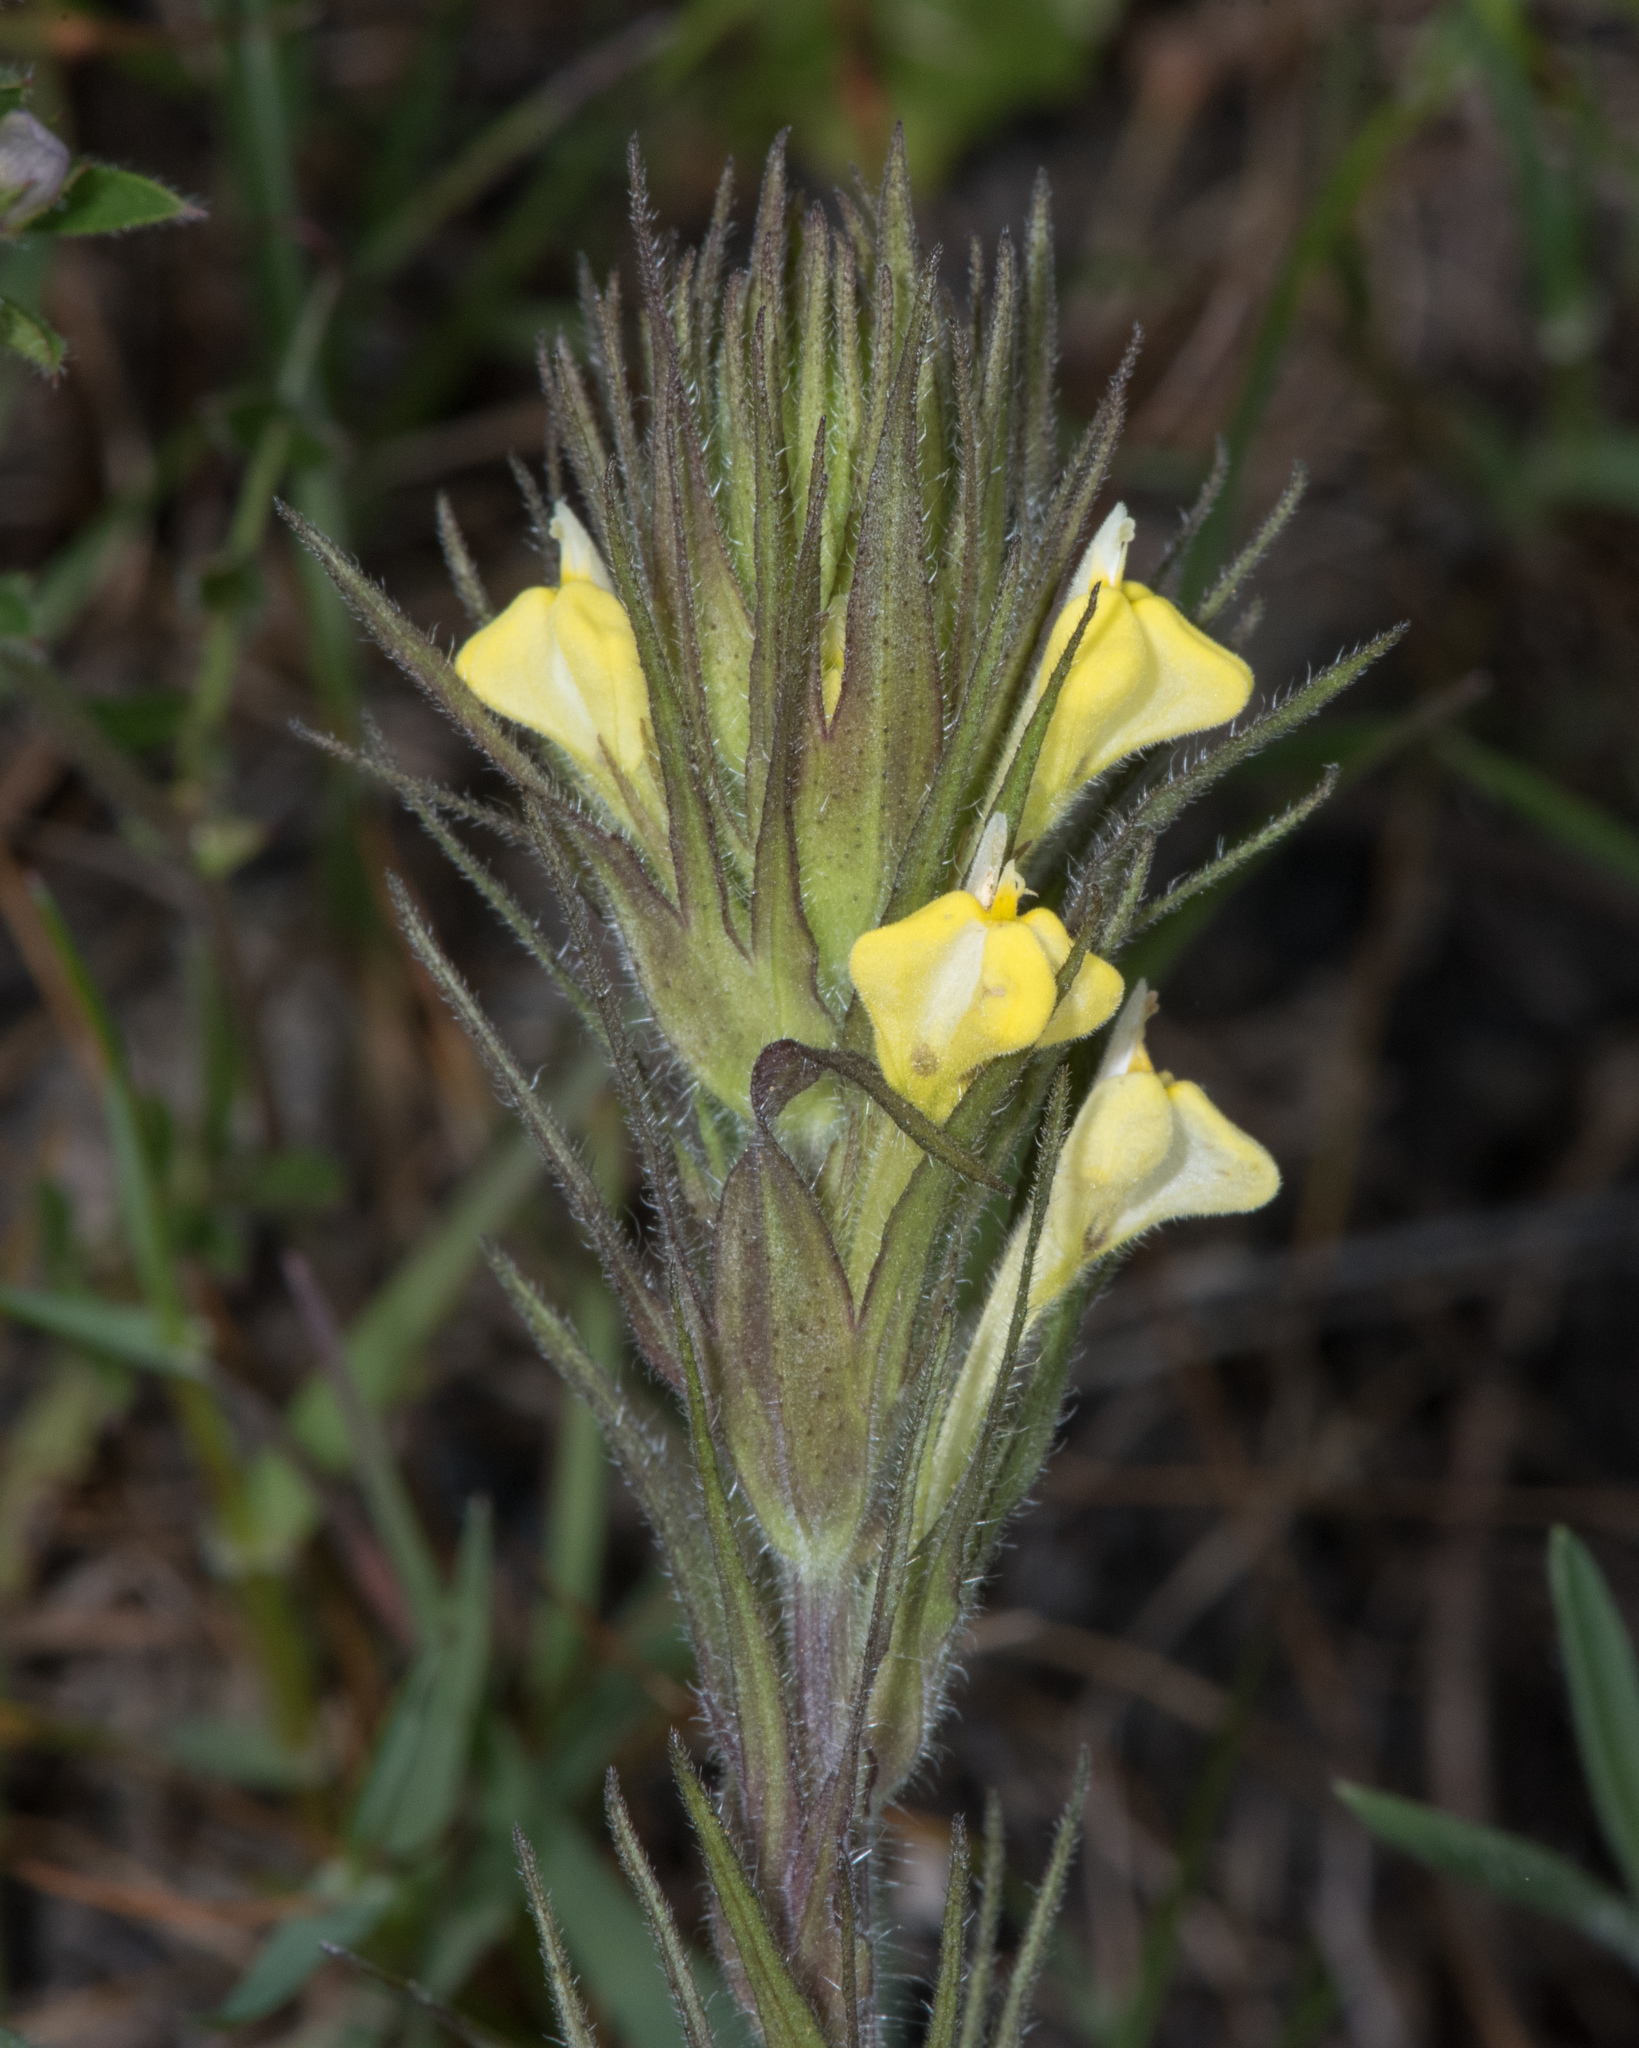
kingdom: Plantae
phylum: Tracheophyta
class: Magnoliopsida
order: Lamiales
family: Orobanchaceae
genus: Castilleja
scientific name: Castilleja rubicundula
